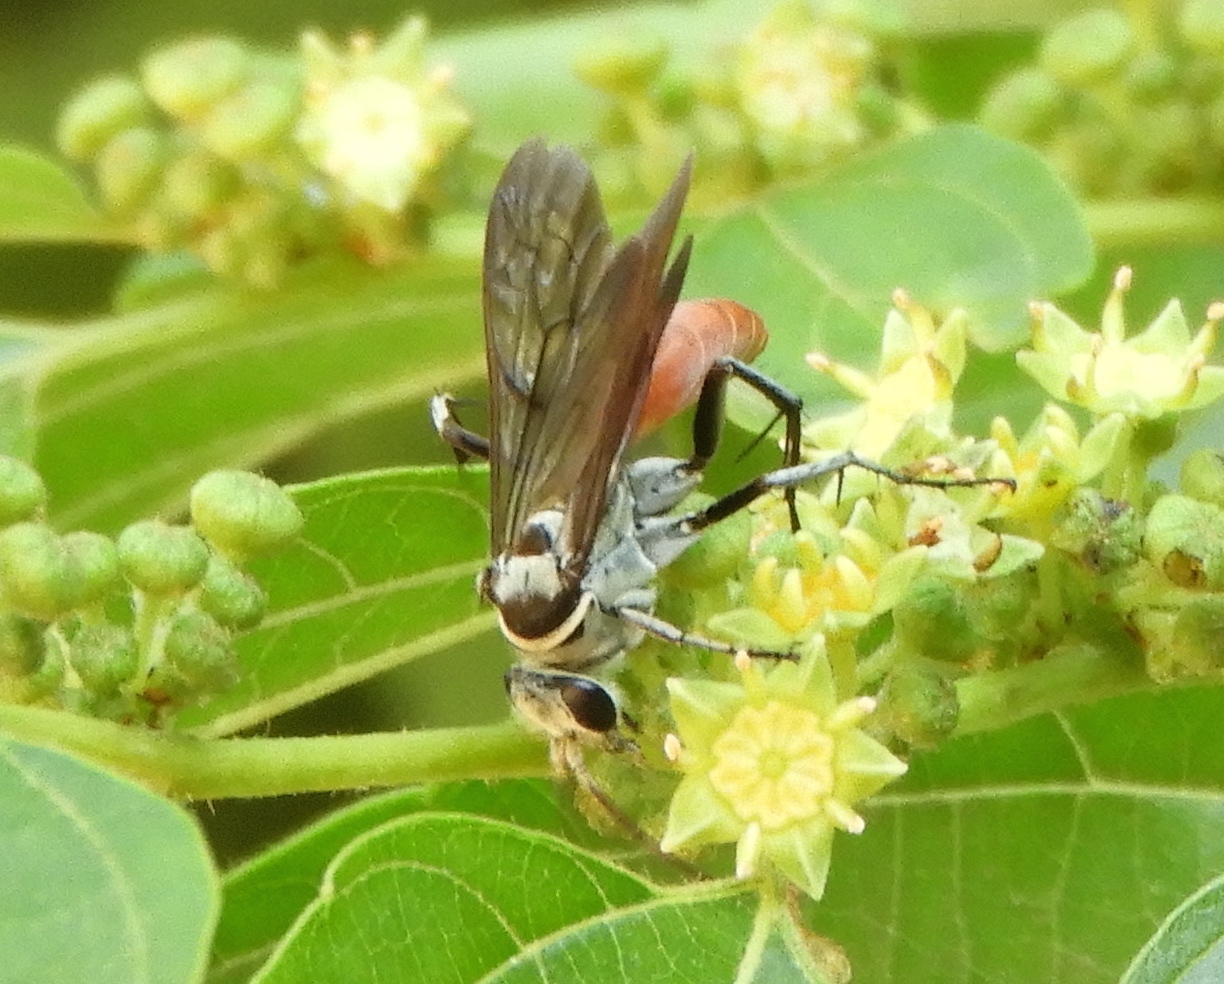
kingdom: Animalia
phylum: Arthropoda
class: Insecta
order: Hymenoptera
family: Pompilidae
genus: Xerochares
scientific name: Xerochares expulsus
